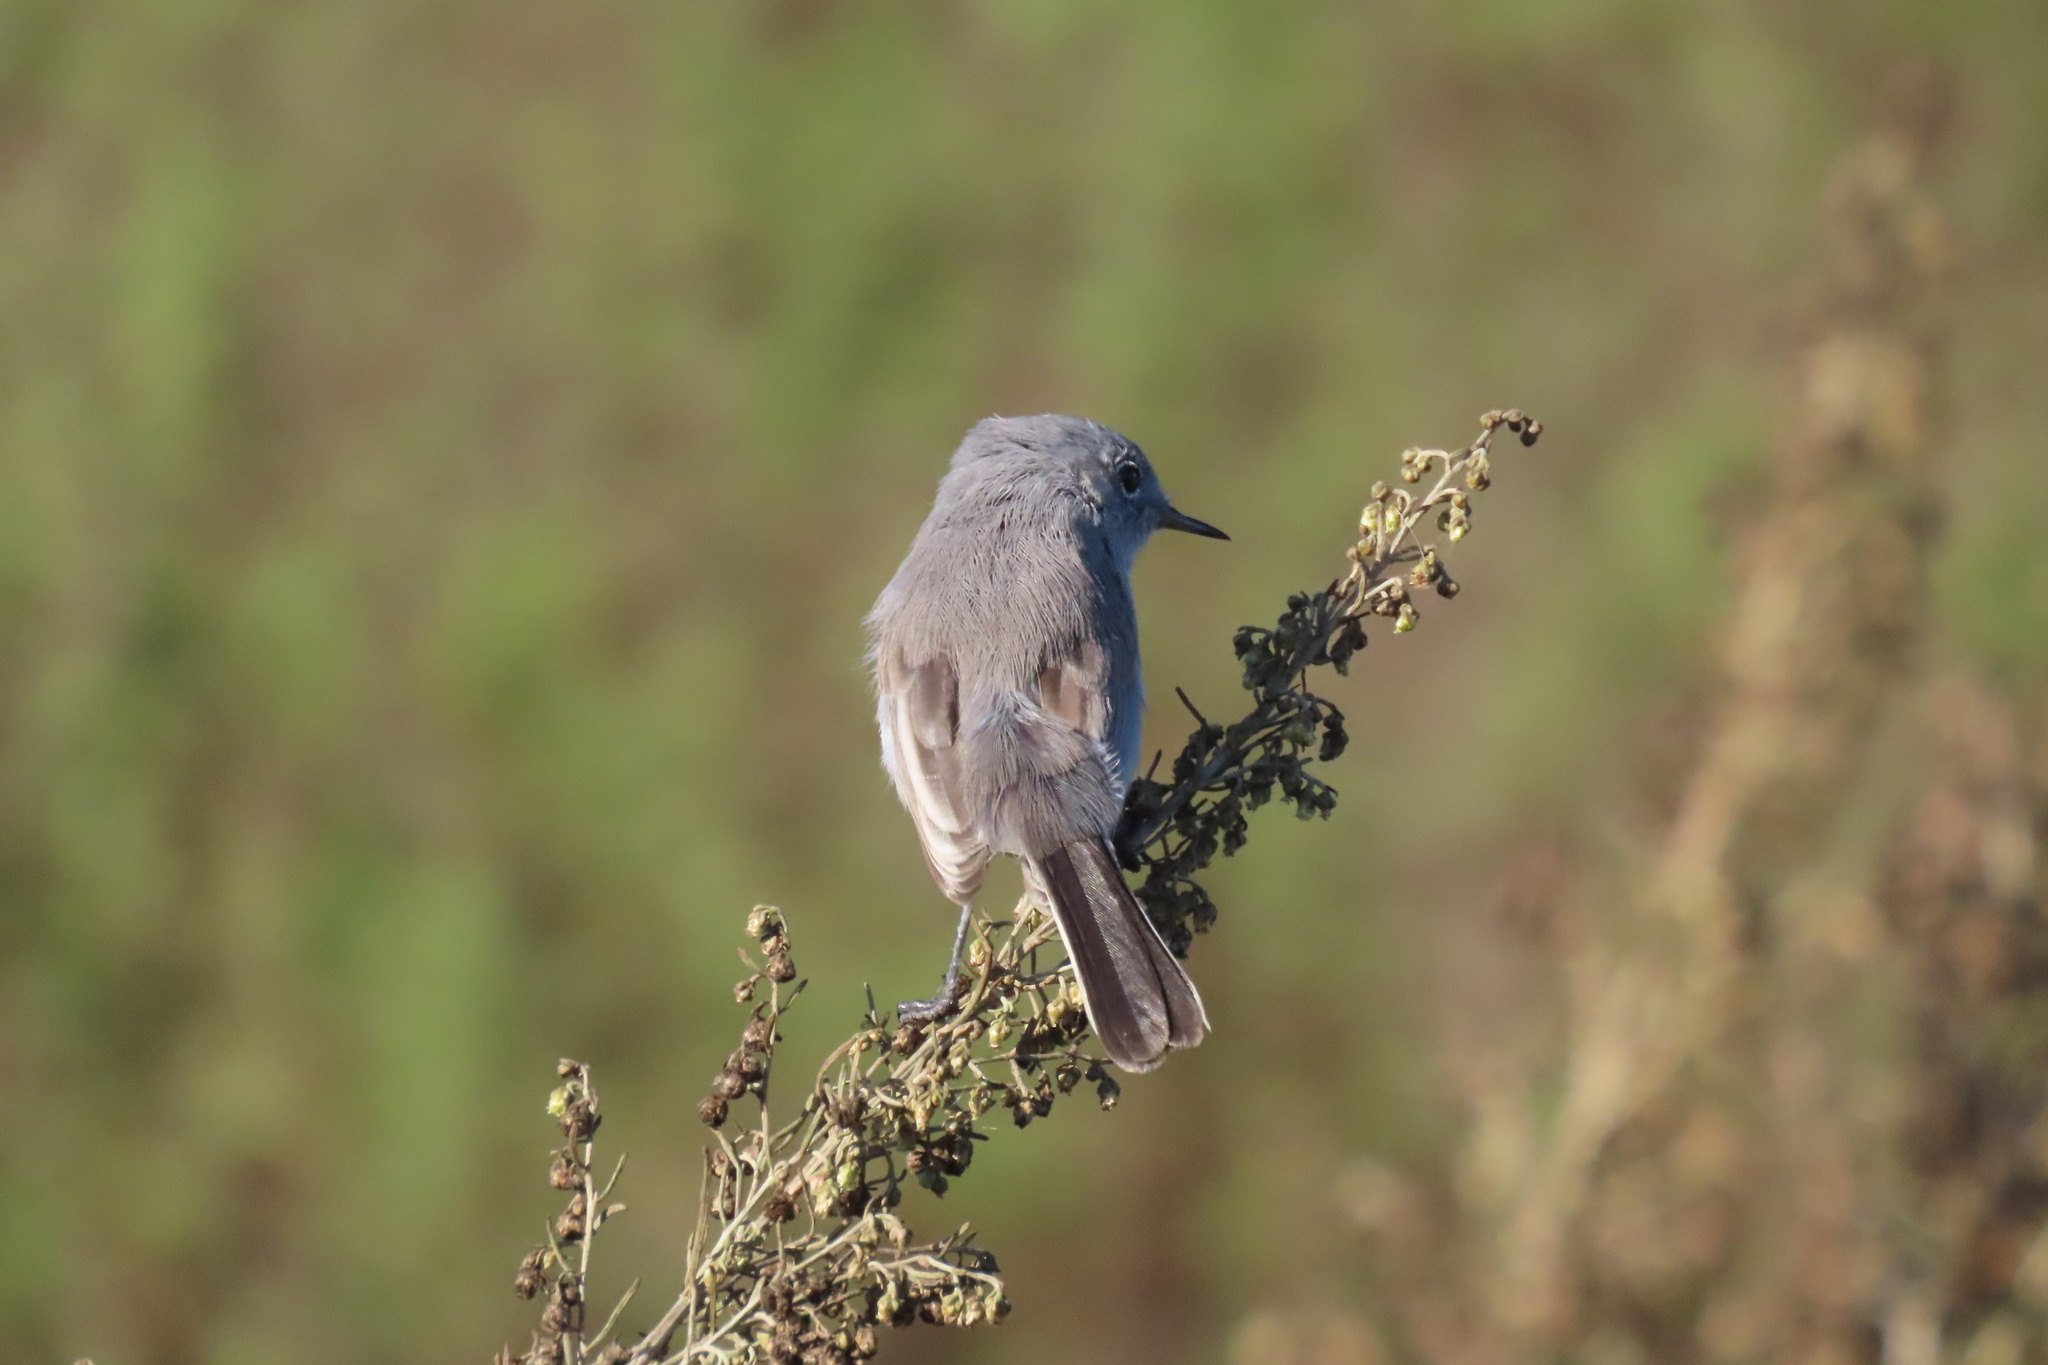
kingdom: Animalia
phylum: Chordata
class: Aves
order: Passeriformes
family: Polioptilidae
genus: Polioptila
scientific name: Polioptila caerulea
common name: Blue-gray gnatcatcher
